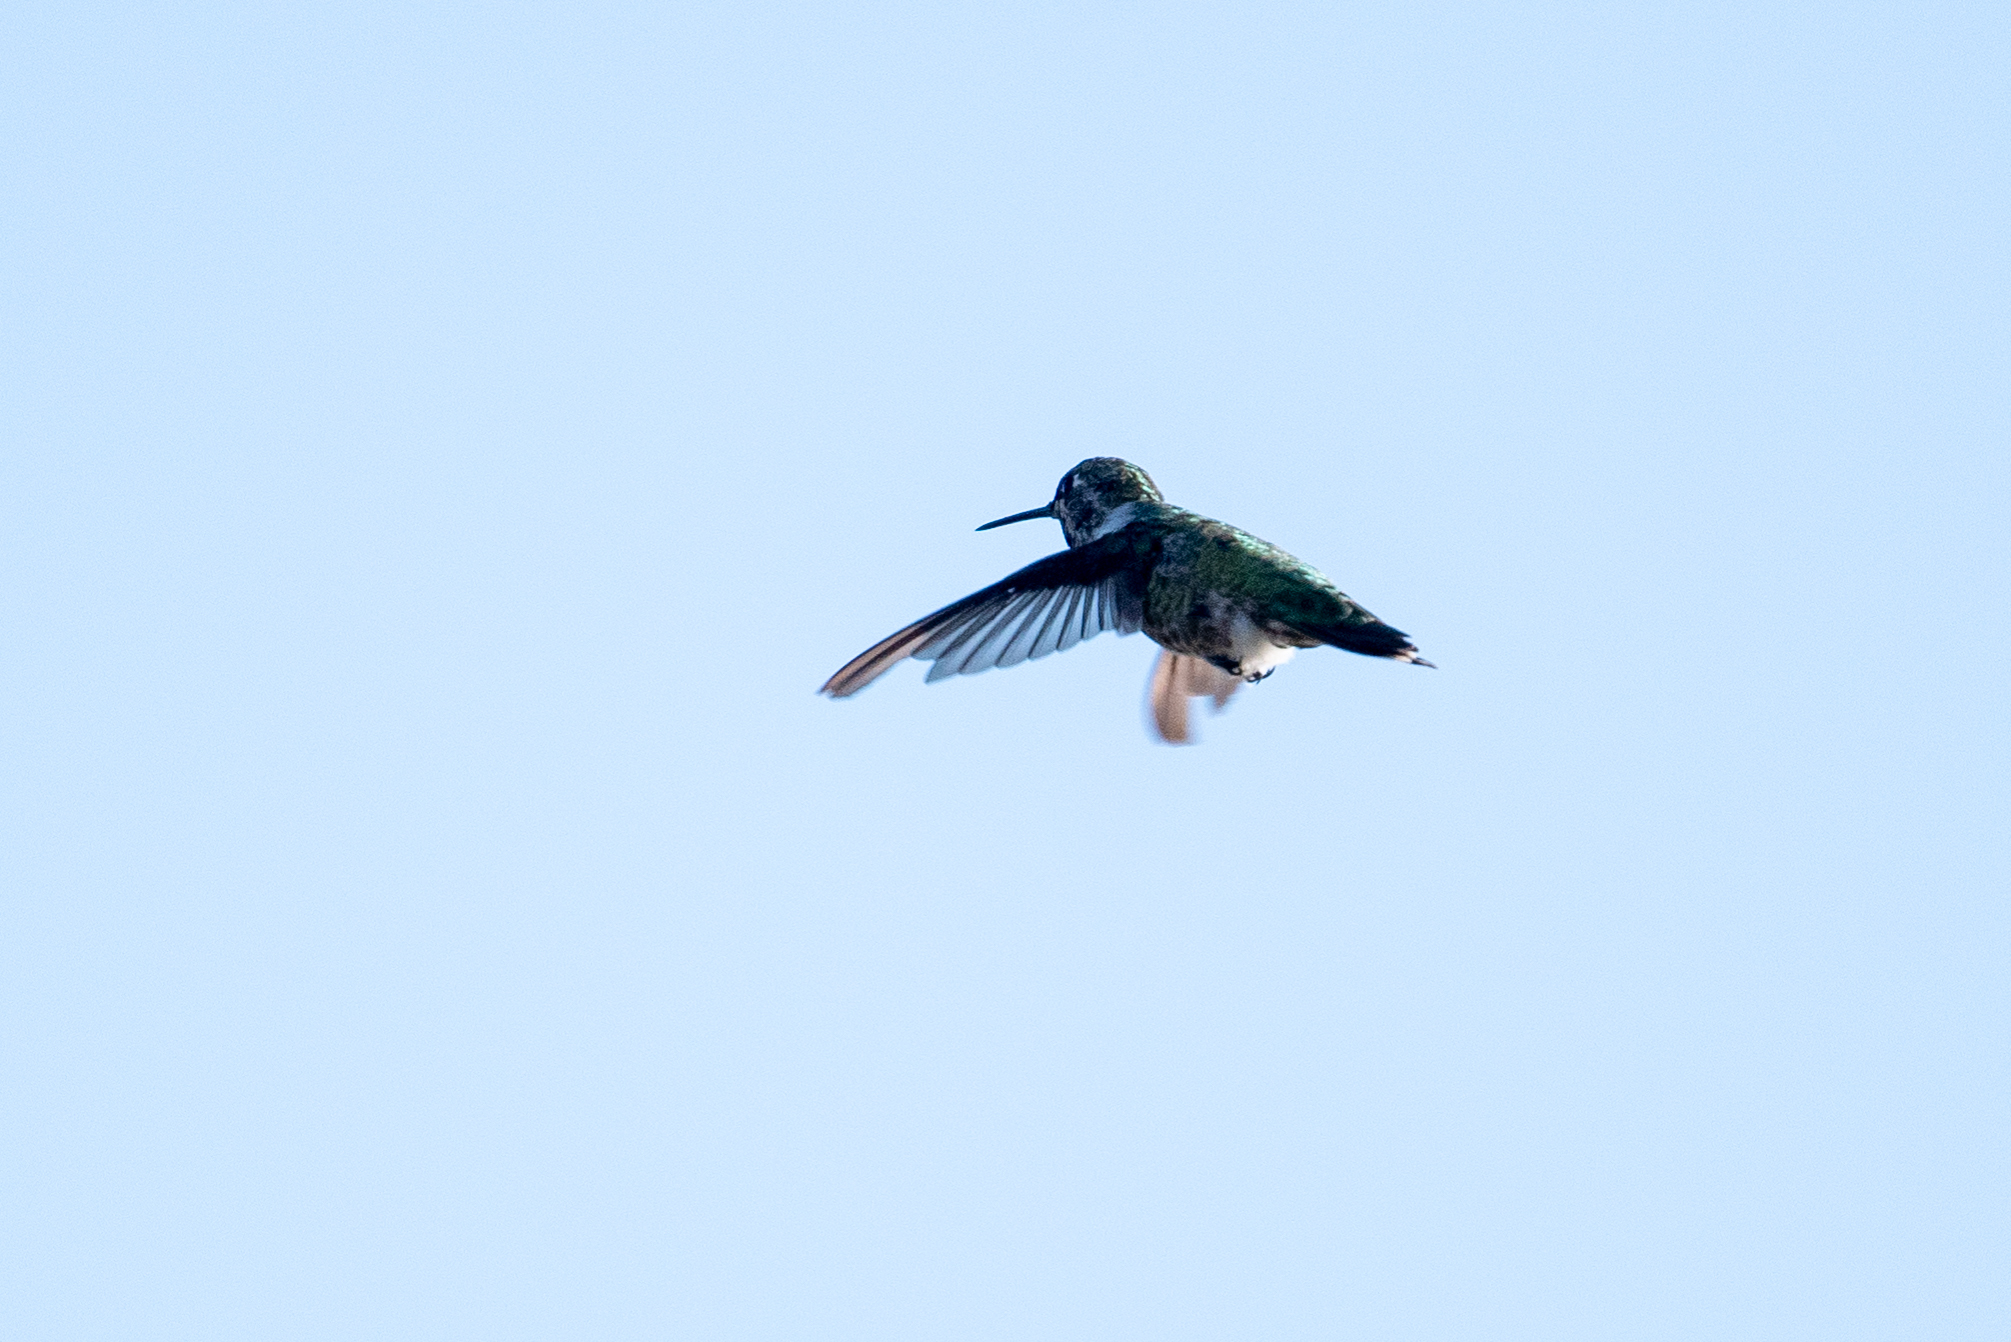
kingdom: Animalia
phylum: Chordata
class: Aves
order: Apodiformes
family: Trochilidae
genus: Calypte
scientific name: Calypte anna
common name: Anna's hummingbird
